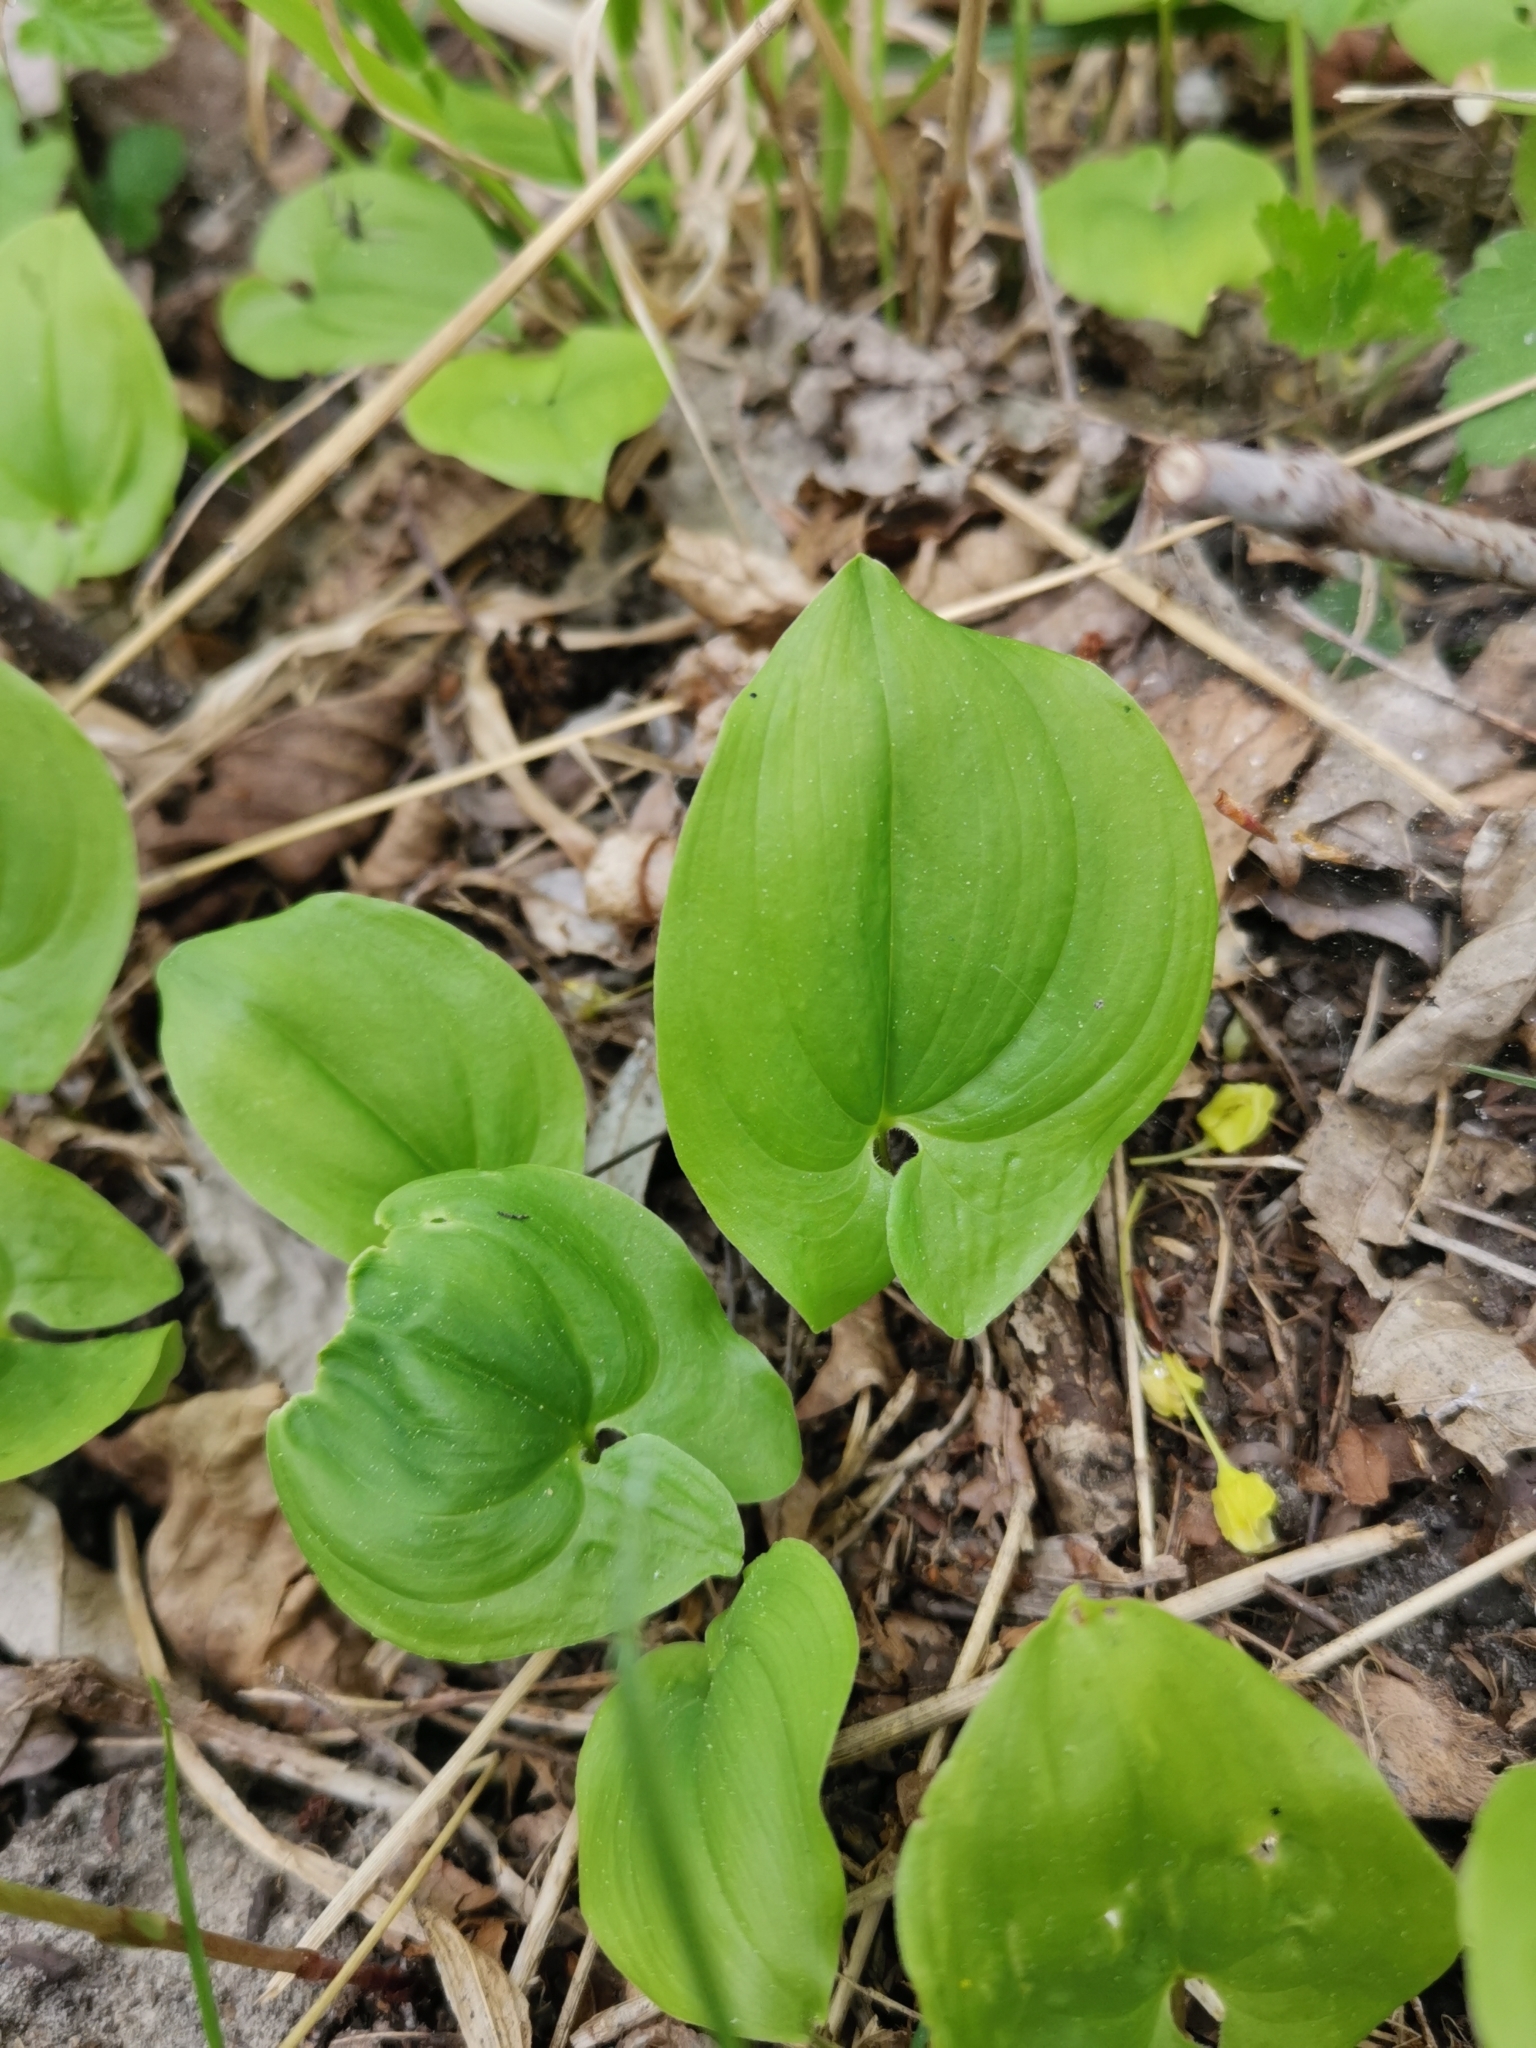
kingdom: Plantae
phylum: Tracheophyta
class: Liliopsida
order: Asparagales
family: Asparagaceae
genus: Maianthemum
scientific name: Maianthemum bifolium
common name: May lily
